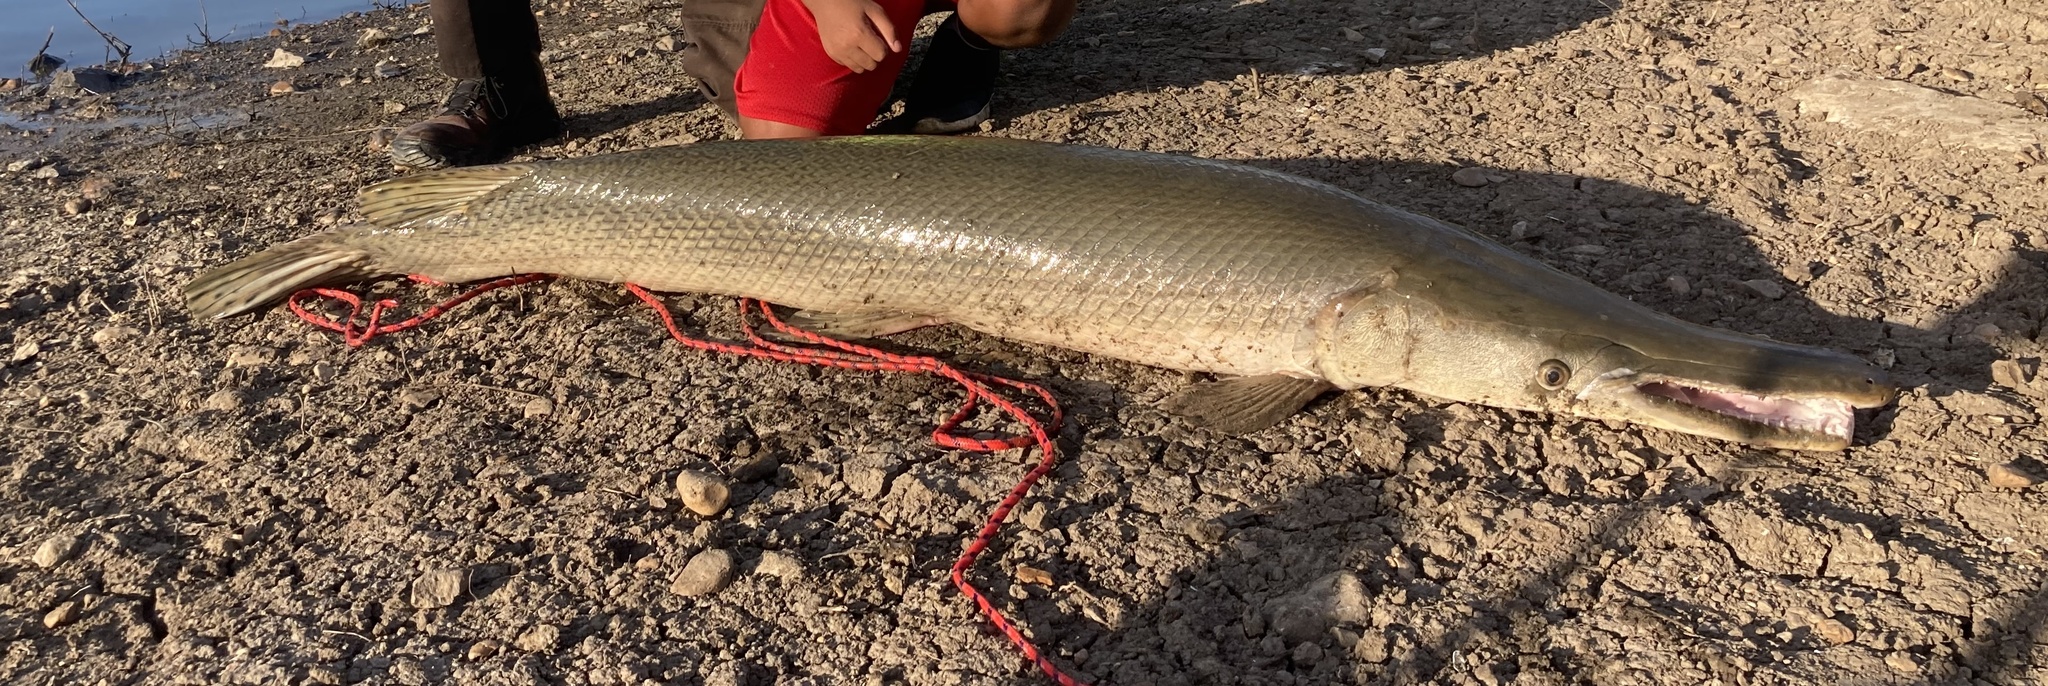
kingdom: Animalia
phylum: Chordata
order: Lepisosteiformes
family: Lepisosteidae
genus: Atractosteus
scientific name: Atractosteus spatula
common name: Alligator gar
